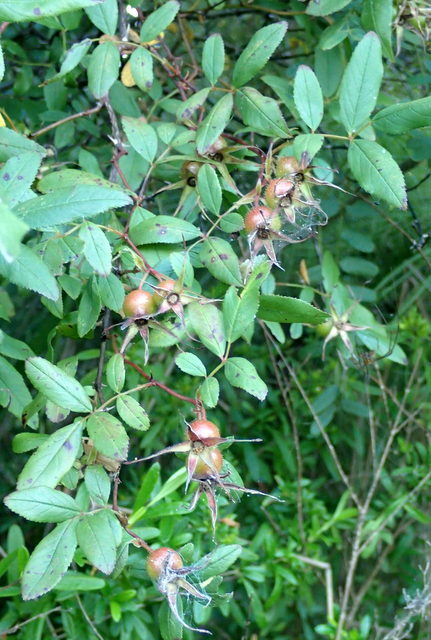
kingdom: Plantae
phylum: Tracheophyta
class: Magnoliopsida
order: Rosales
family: Rosaceae
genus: Rosa
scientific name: Rosa palustris
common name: Swamp rose
